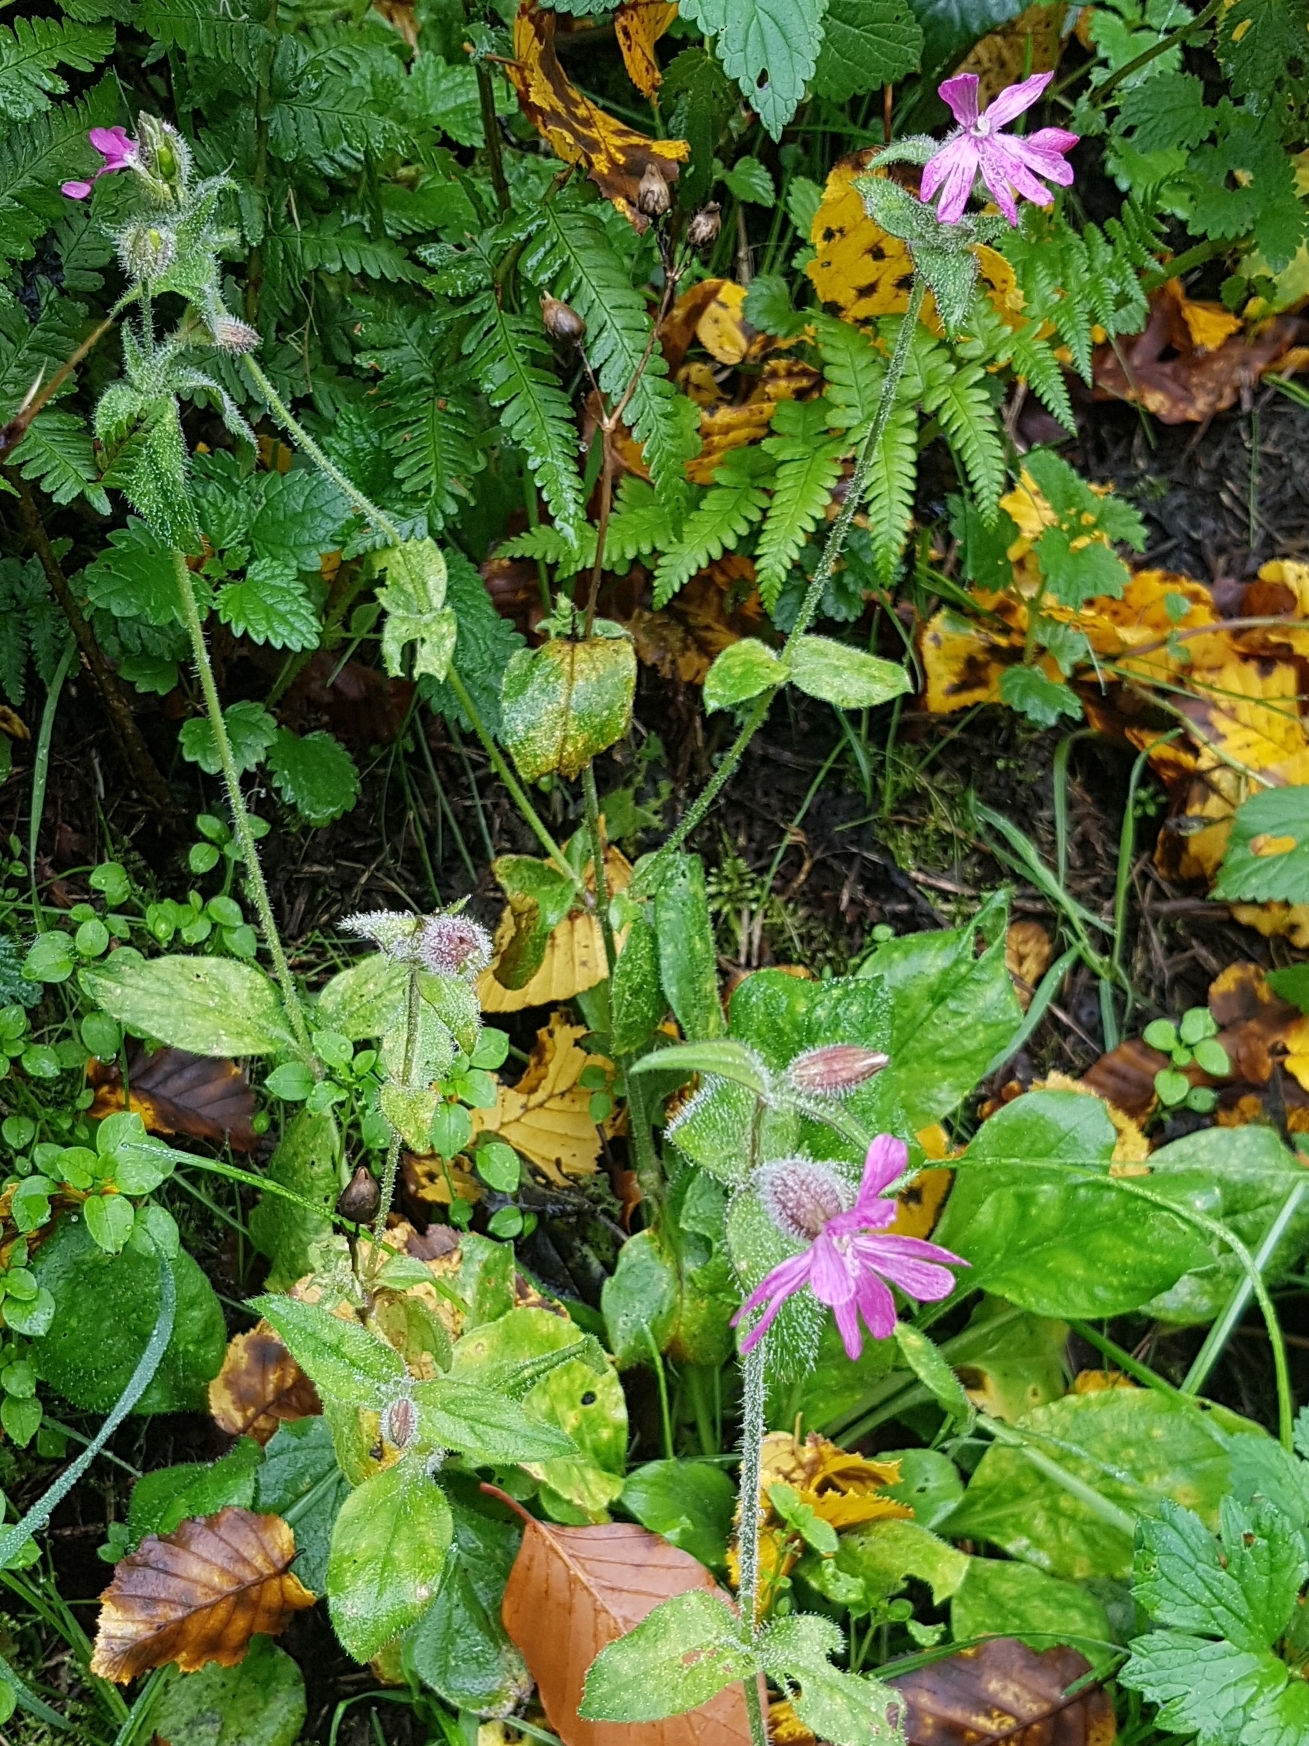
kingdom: Plantae
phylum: Tracheophyta
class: Magnoliopsida
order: Caryophyllales
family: Caryophyllaceae
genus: Silene
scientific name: Silene dioica
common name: Red campion
